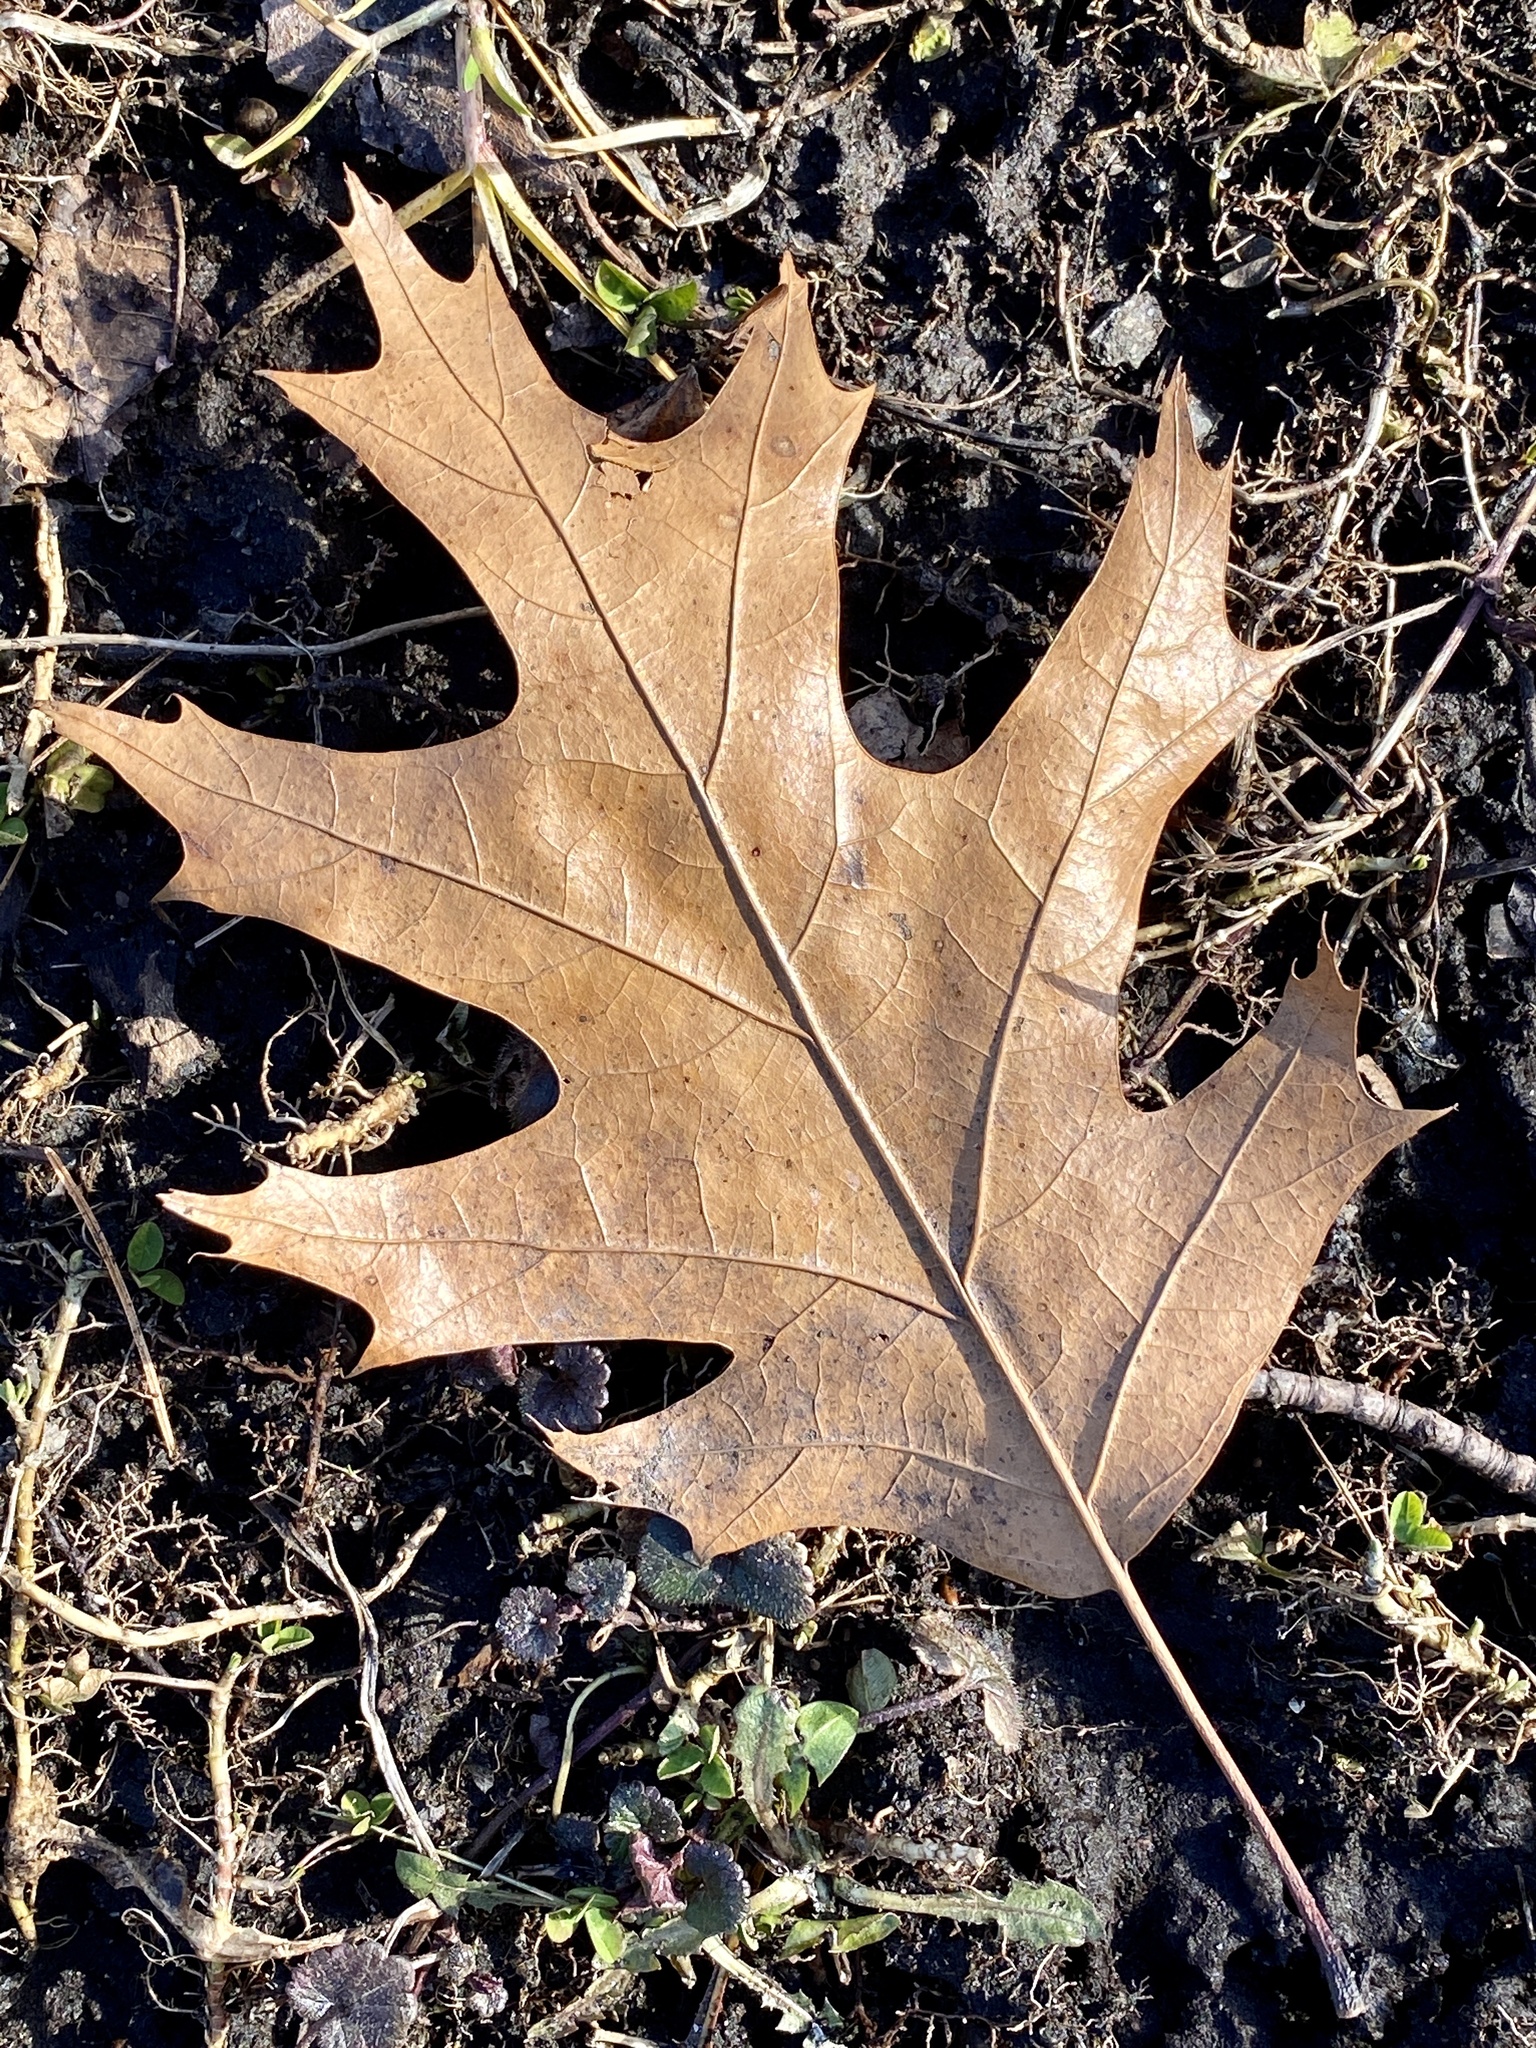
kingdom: Plantae
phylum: Tracheophyta
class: Magnoliopsida
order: Fagales
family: Fagaceae
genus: Quercus
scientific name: Quercus rubra
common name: Red oak
